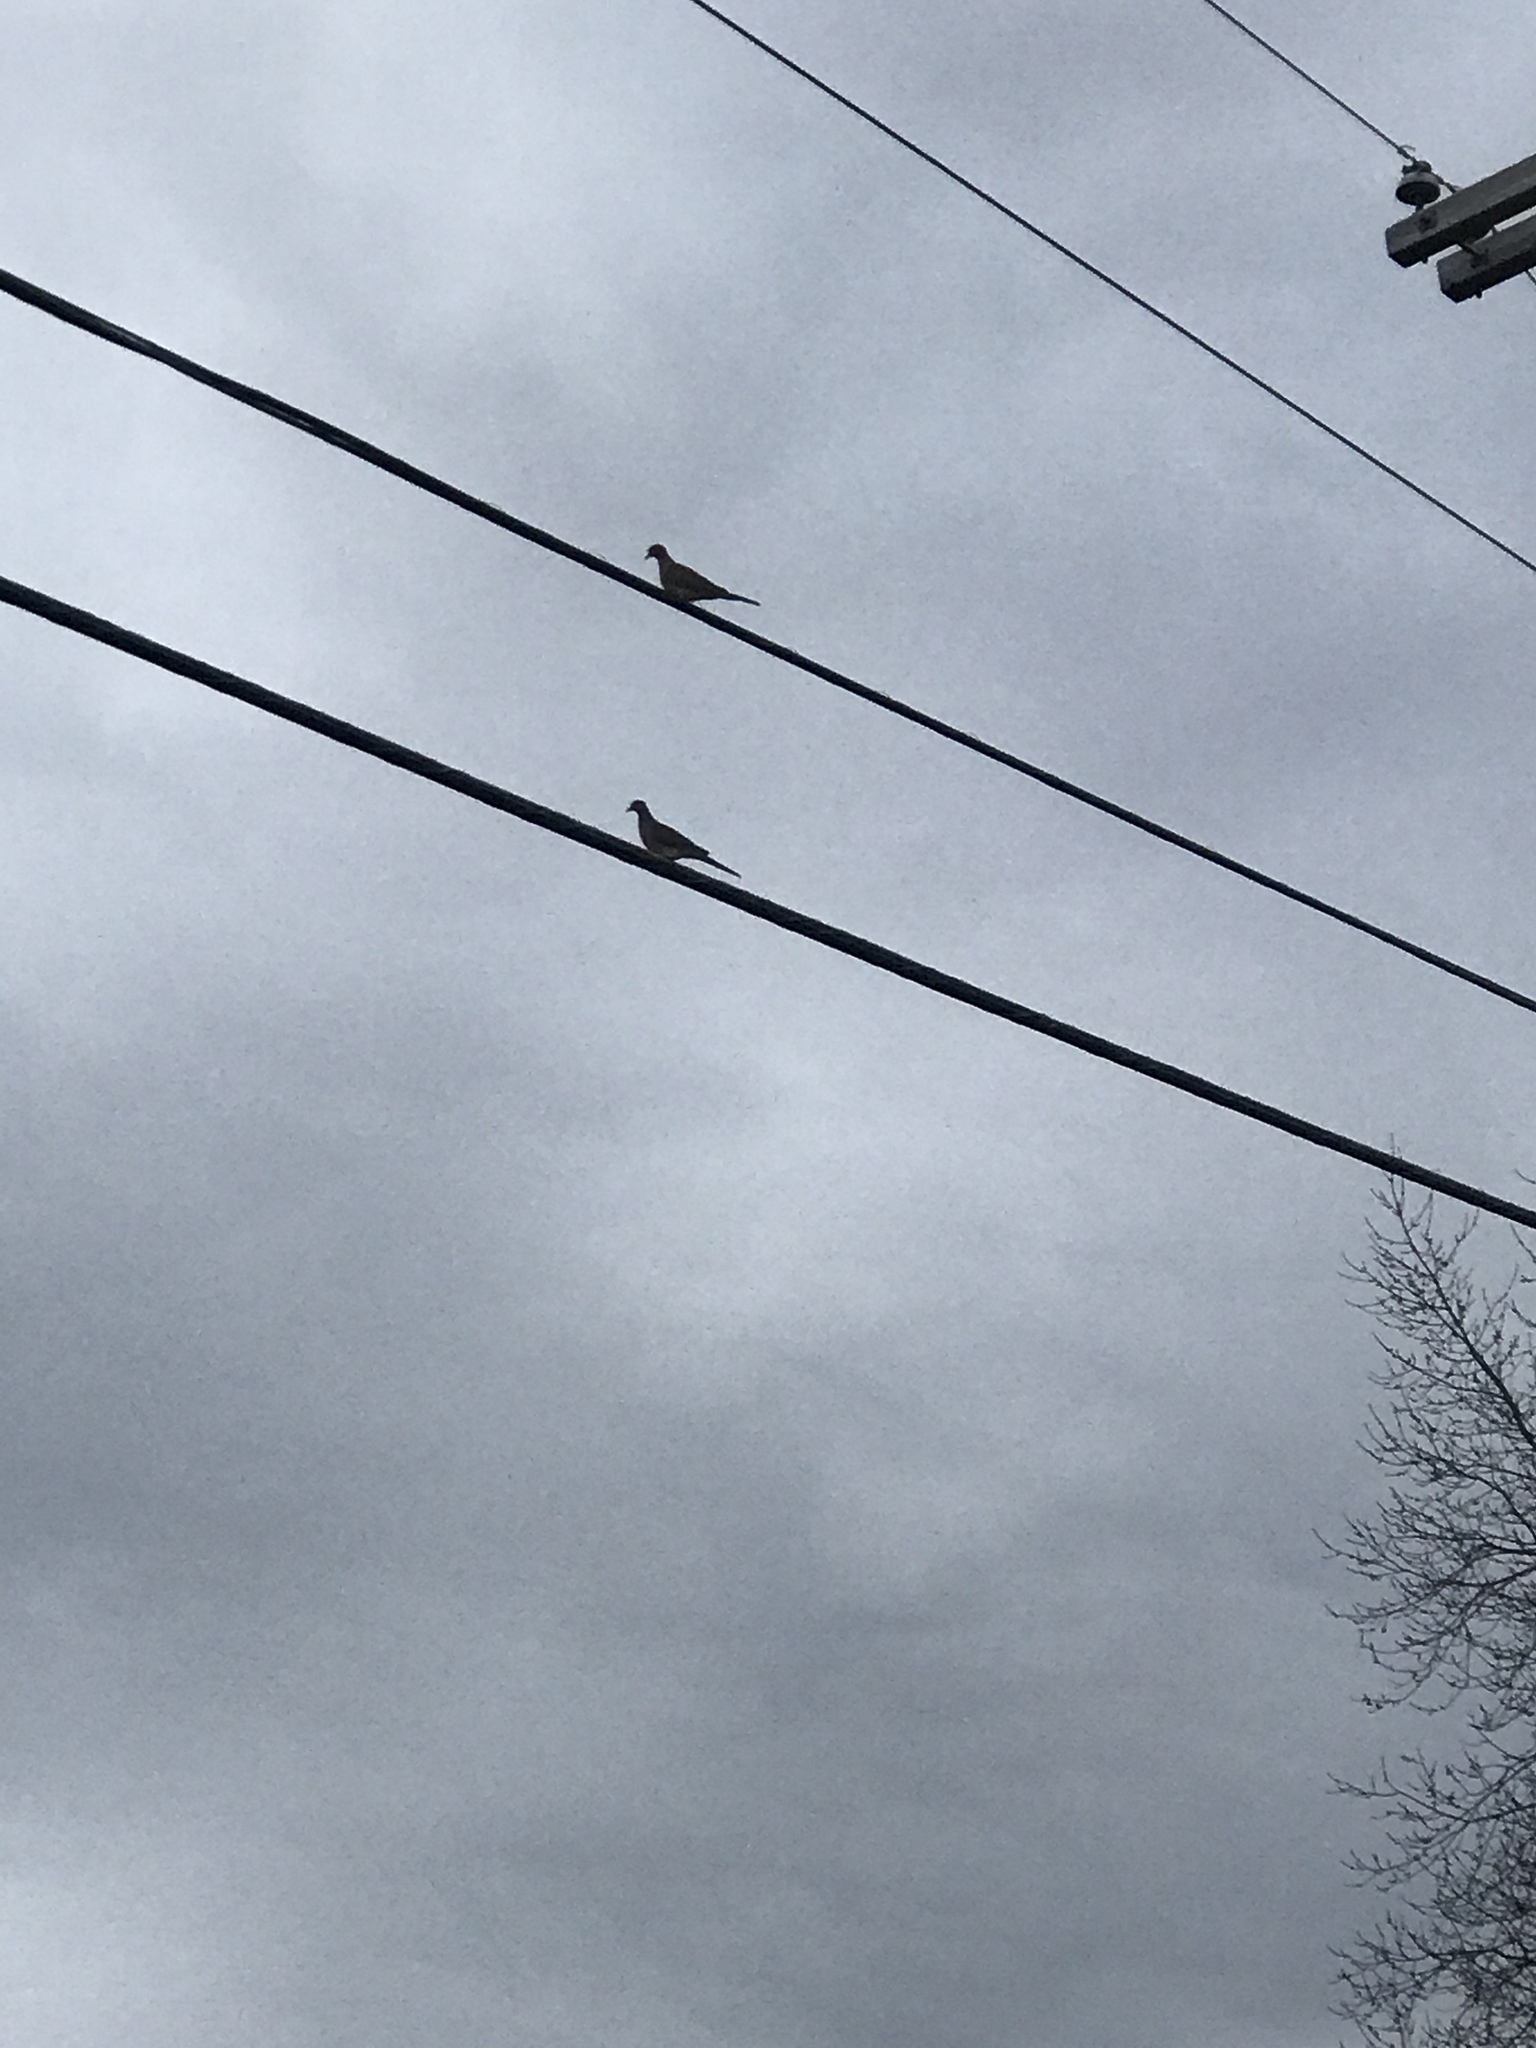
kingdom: Animalia
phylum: Chordata
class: Aves
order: Columbiformes
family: Columbidae
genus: Zenaida
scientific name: Zenaida macroura
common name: Mourning dove
